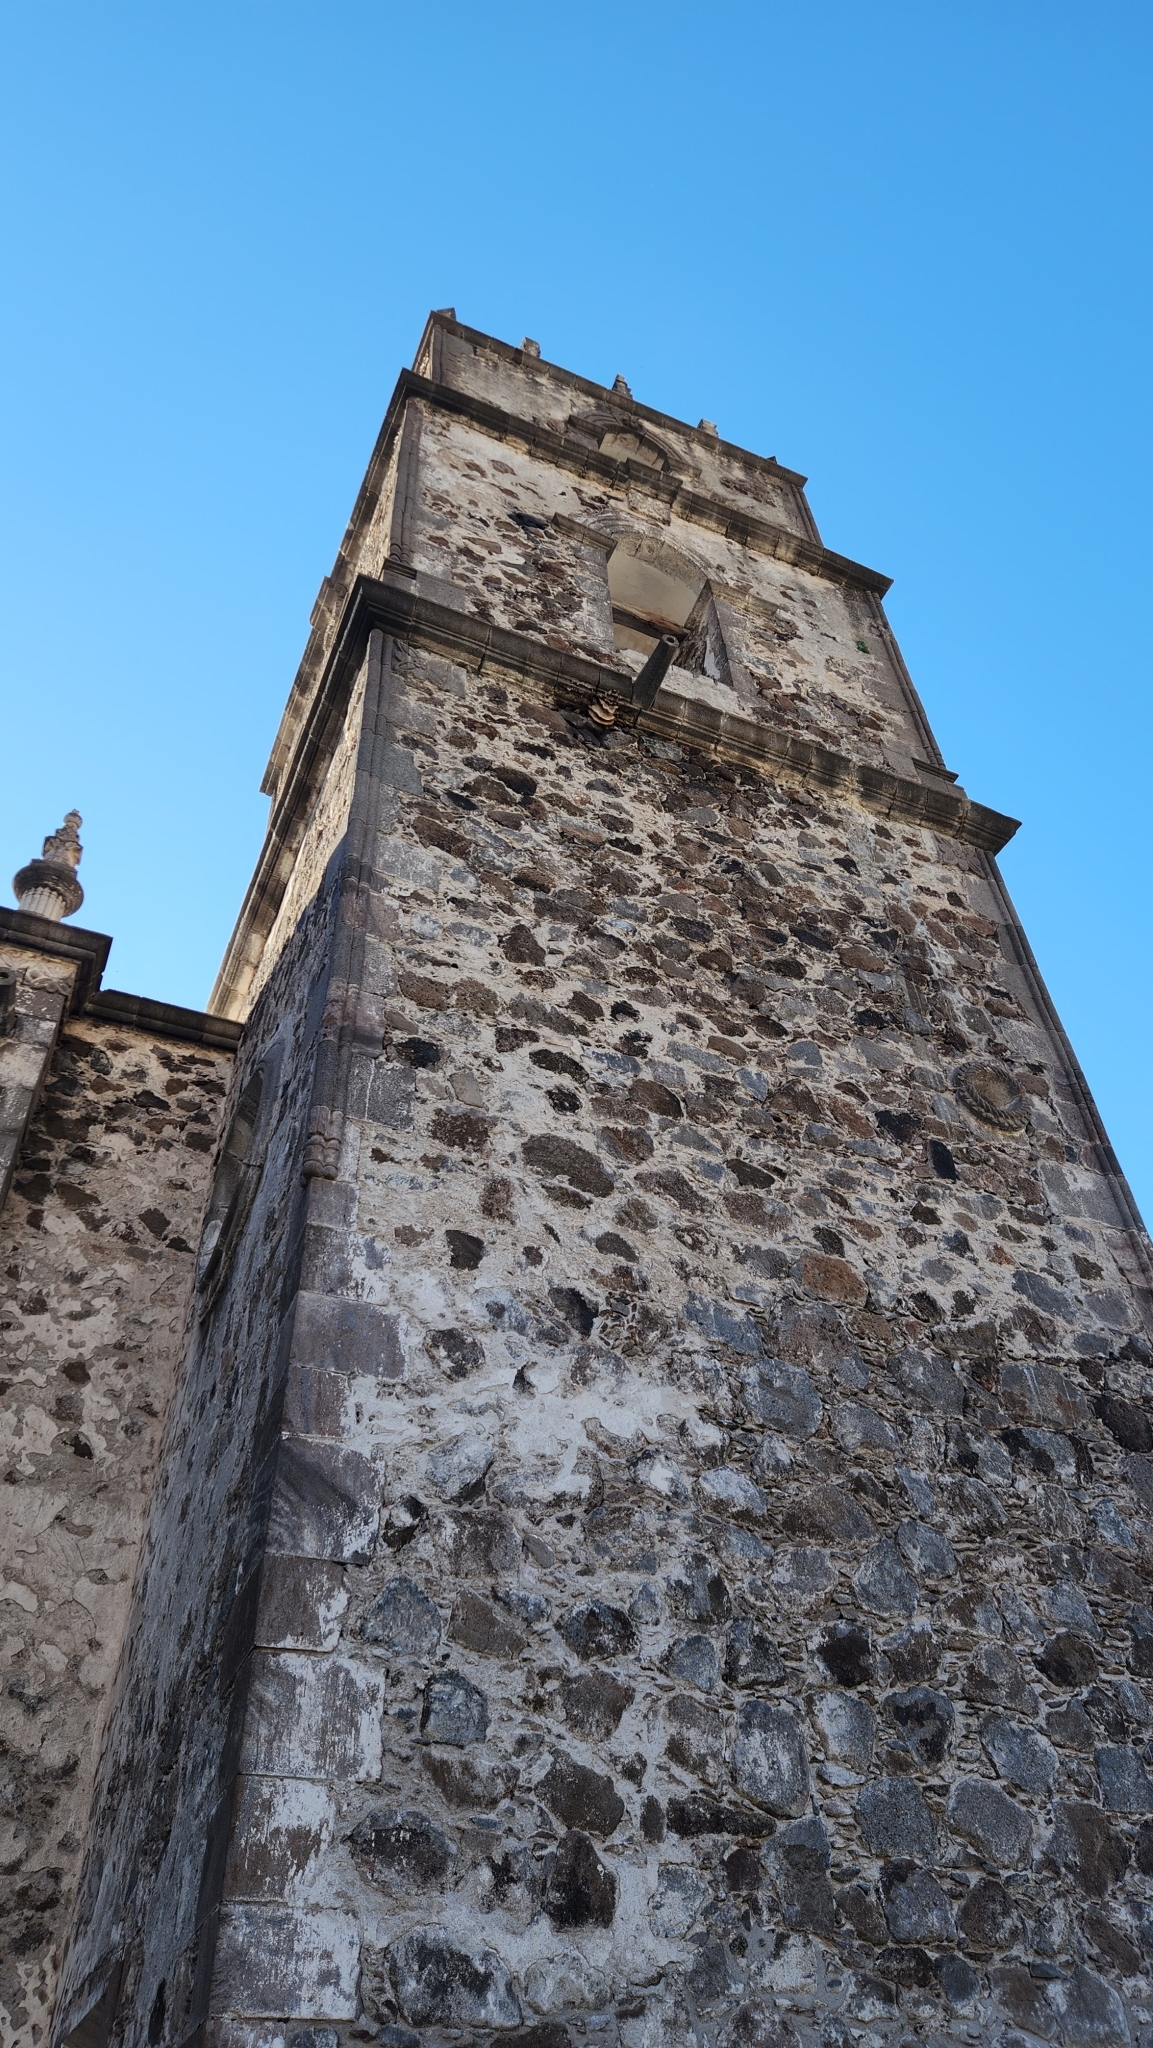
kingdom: Animalia
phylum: Arthropoda
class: Insecta
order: Hymenoptera
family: Apidae
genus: Apis
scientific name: Apis mellifera
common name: Honey bee
